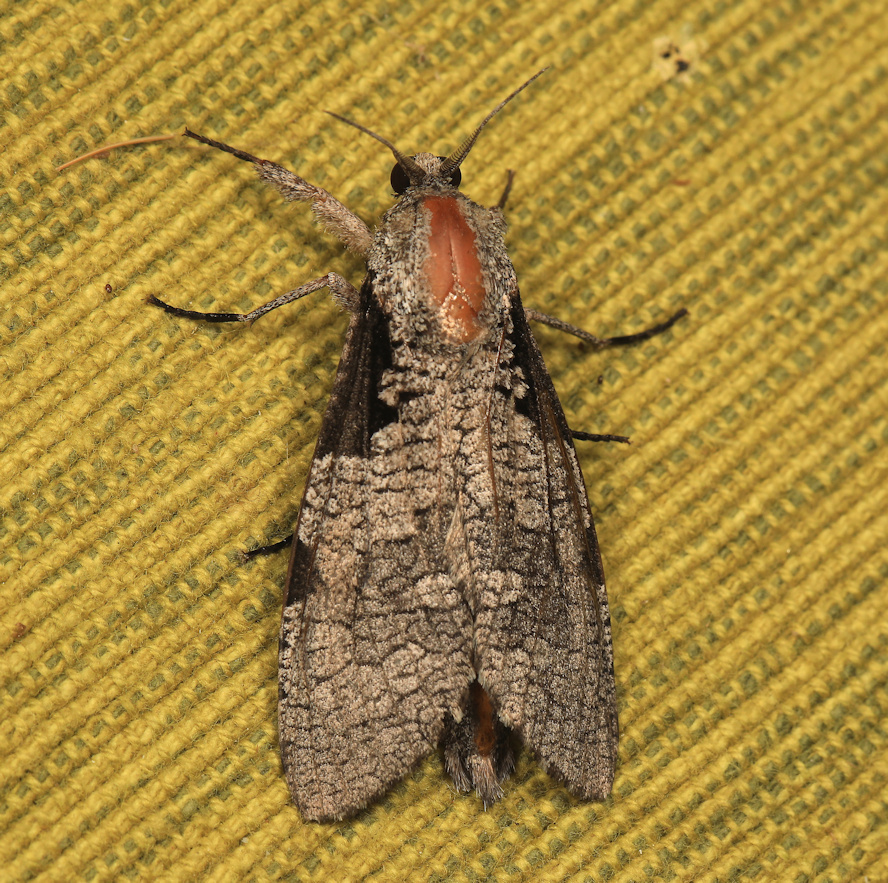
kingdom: Animalia
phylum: Arthropoda
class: Insecta
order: Lepidoptera
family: Cossidae
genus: Aethalopteryx
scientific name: Aethalopteryx squameus
